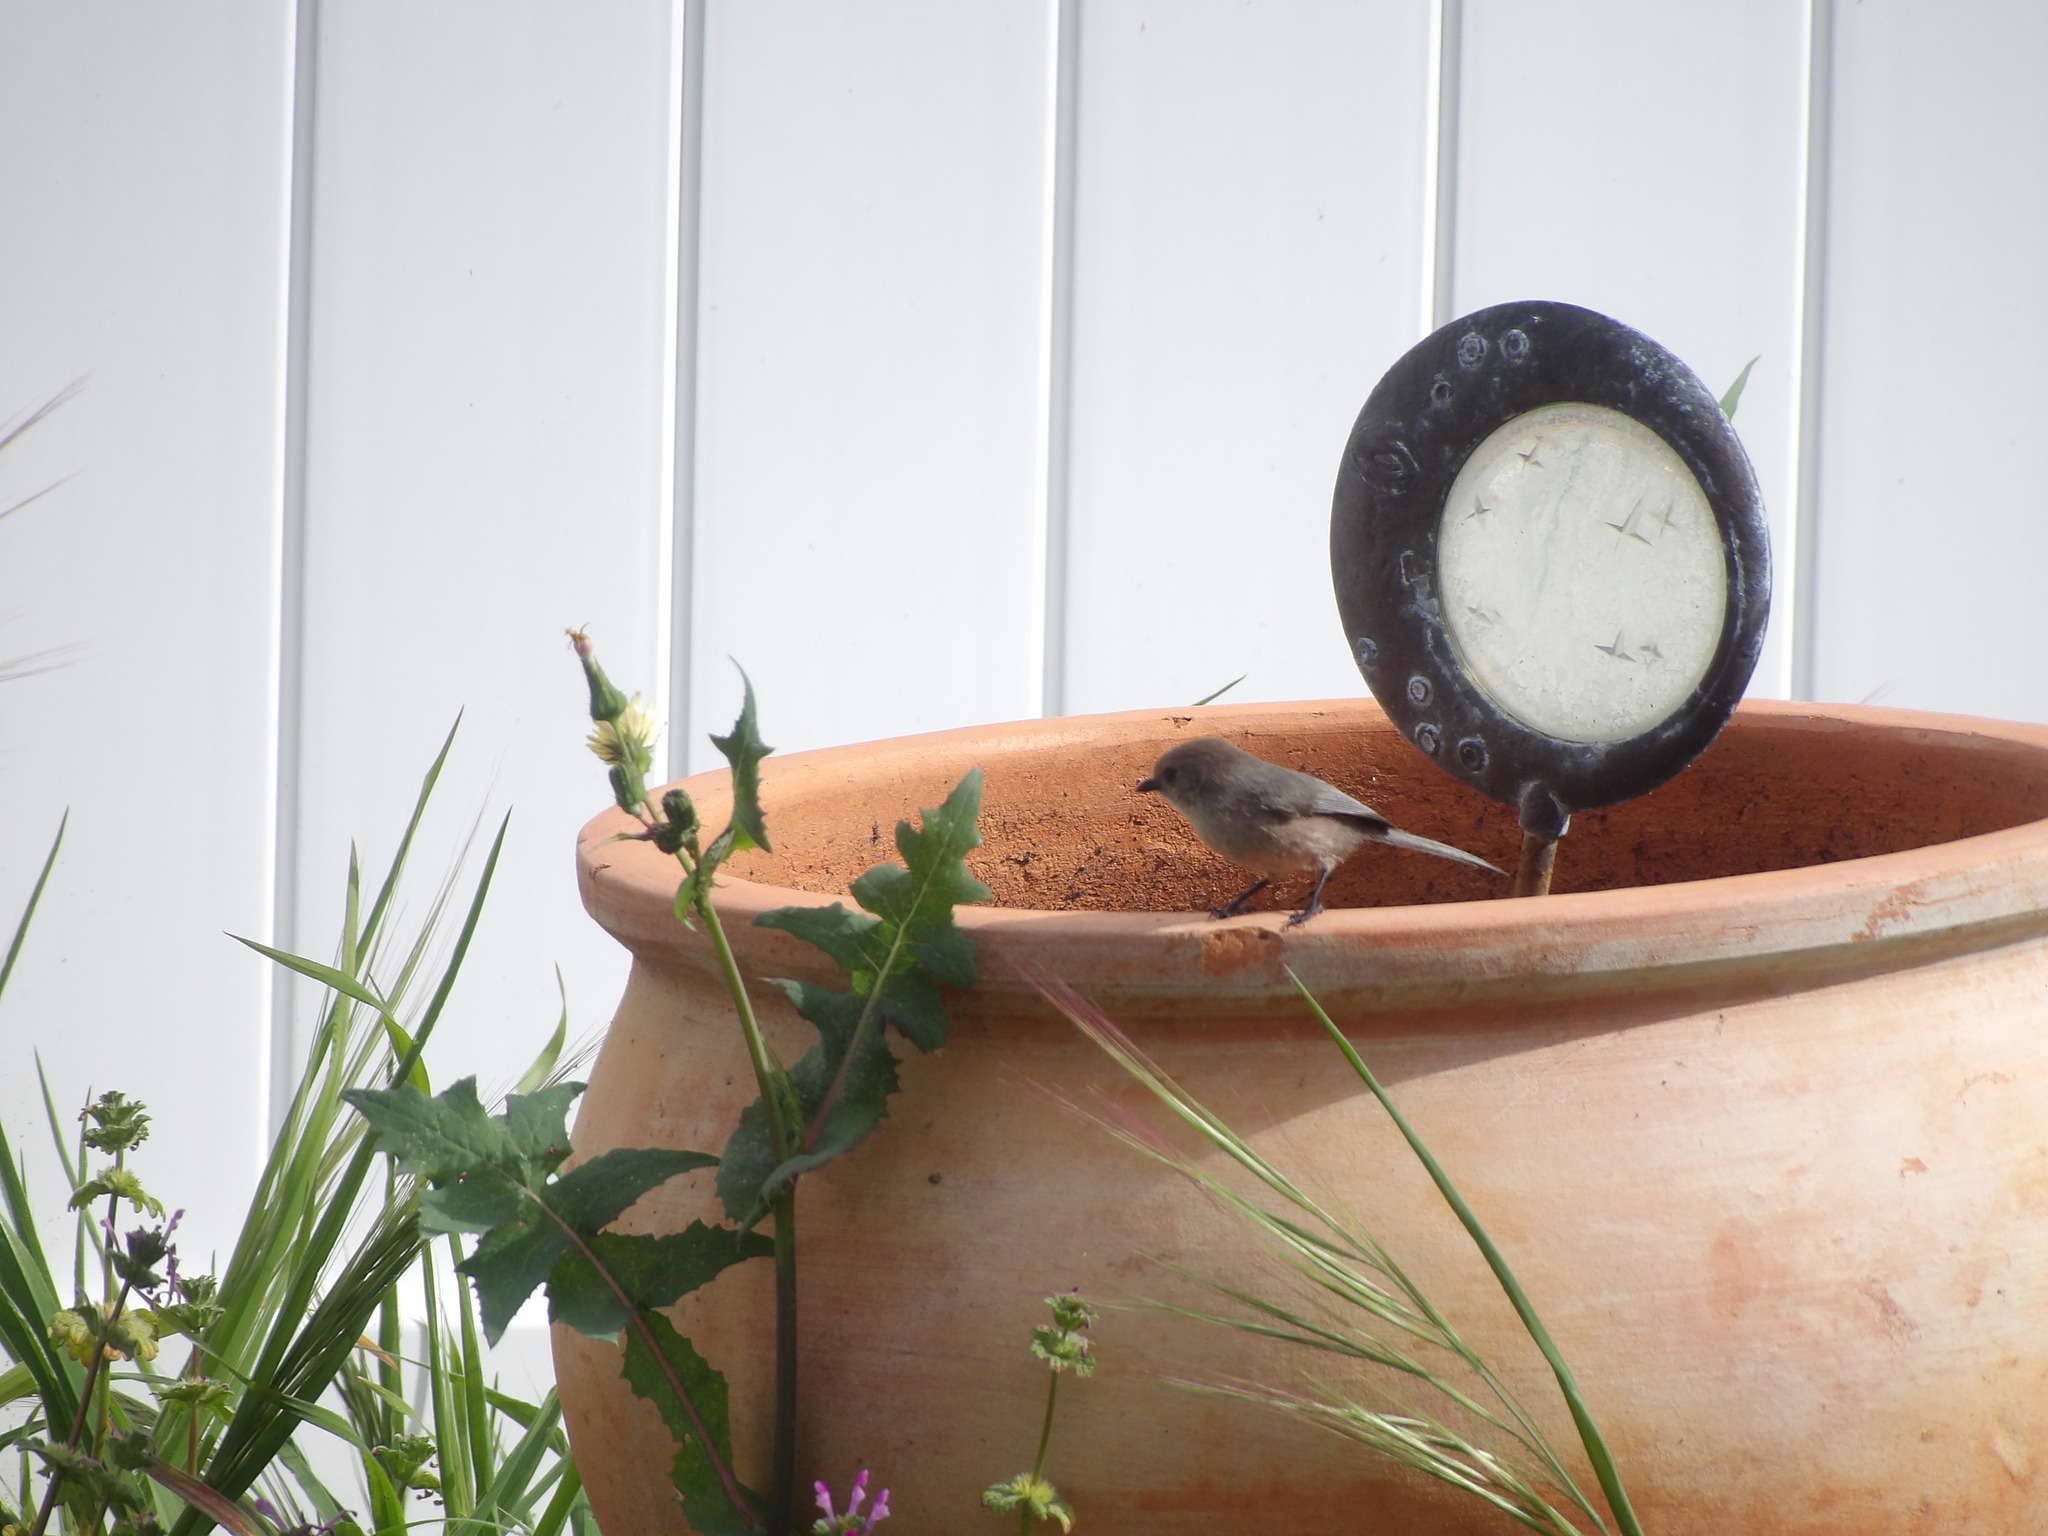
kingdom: Animalia
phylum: Chordata
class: Aves
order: Passeriformes
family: Aegithalidae
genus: Psaltriparus
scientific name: Psaltriparus minimus
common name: American bushtit
